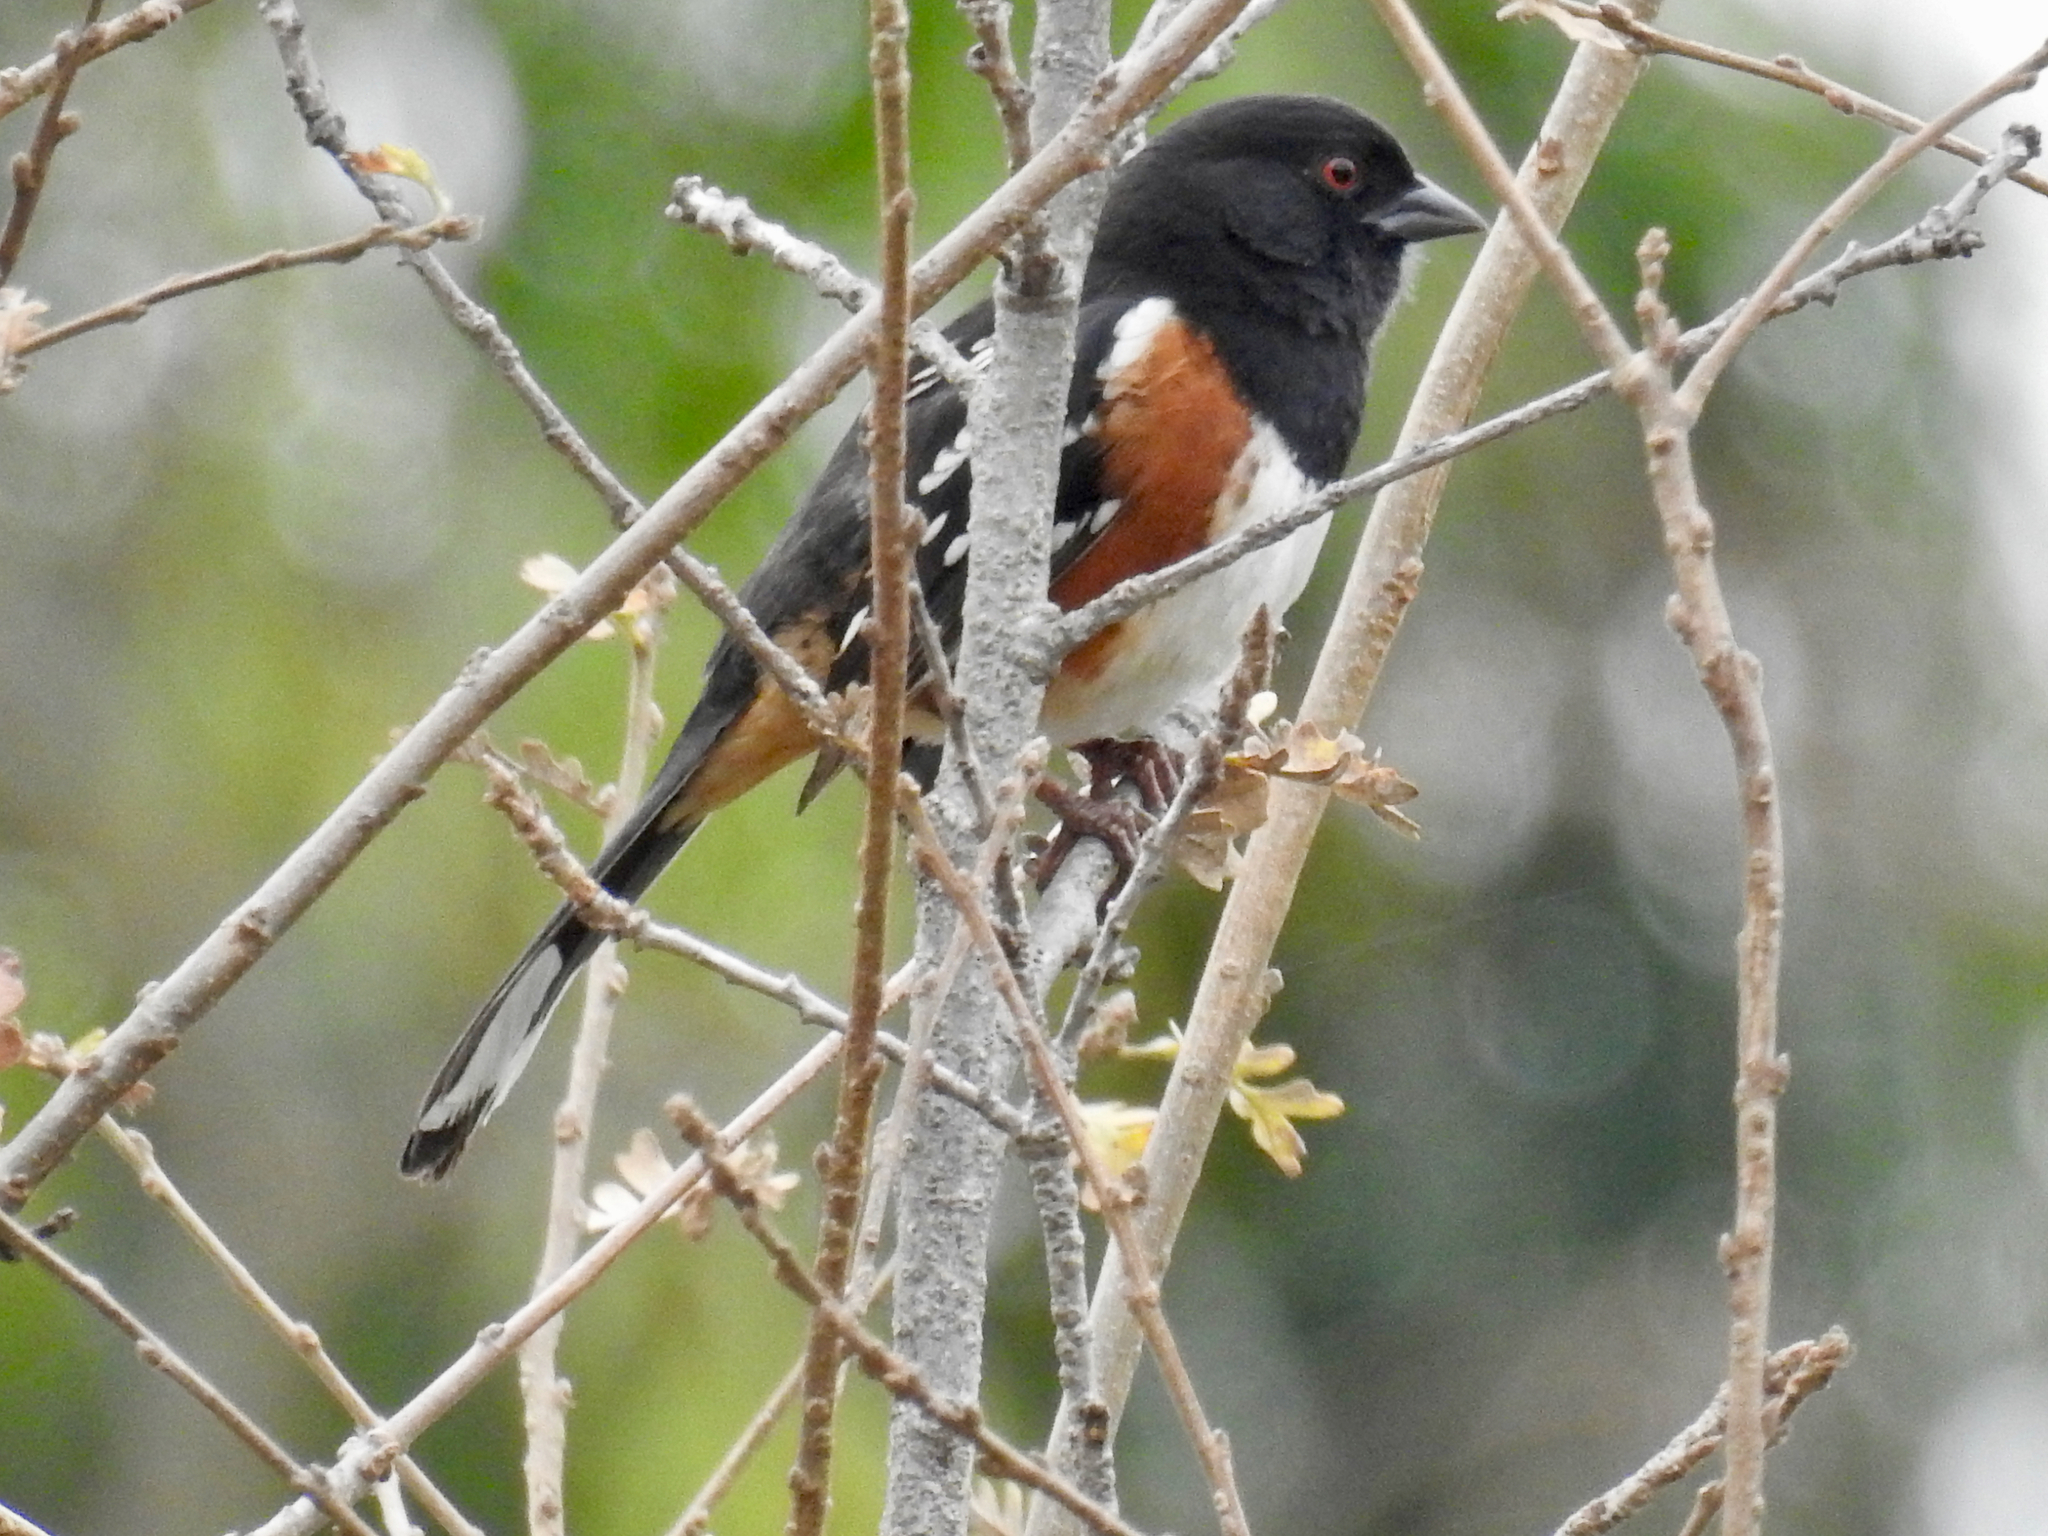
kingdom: Animalia
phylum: Chordata
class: Aves
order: Passeriformes
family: Passerellidae
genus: Pipilo
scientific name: Pipilo maculatus
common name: Spotted towhee
